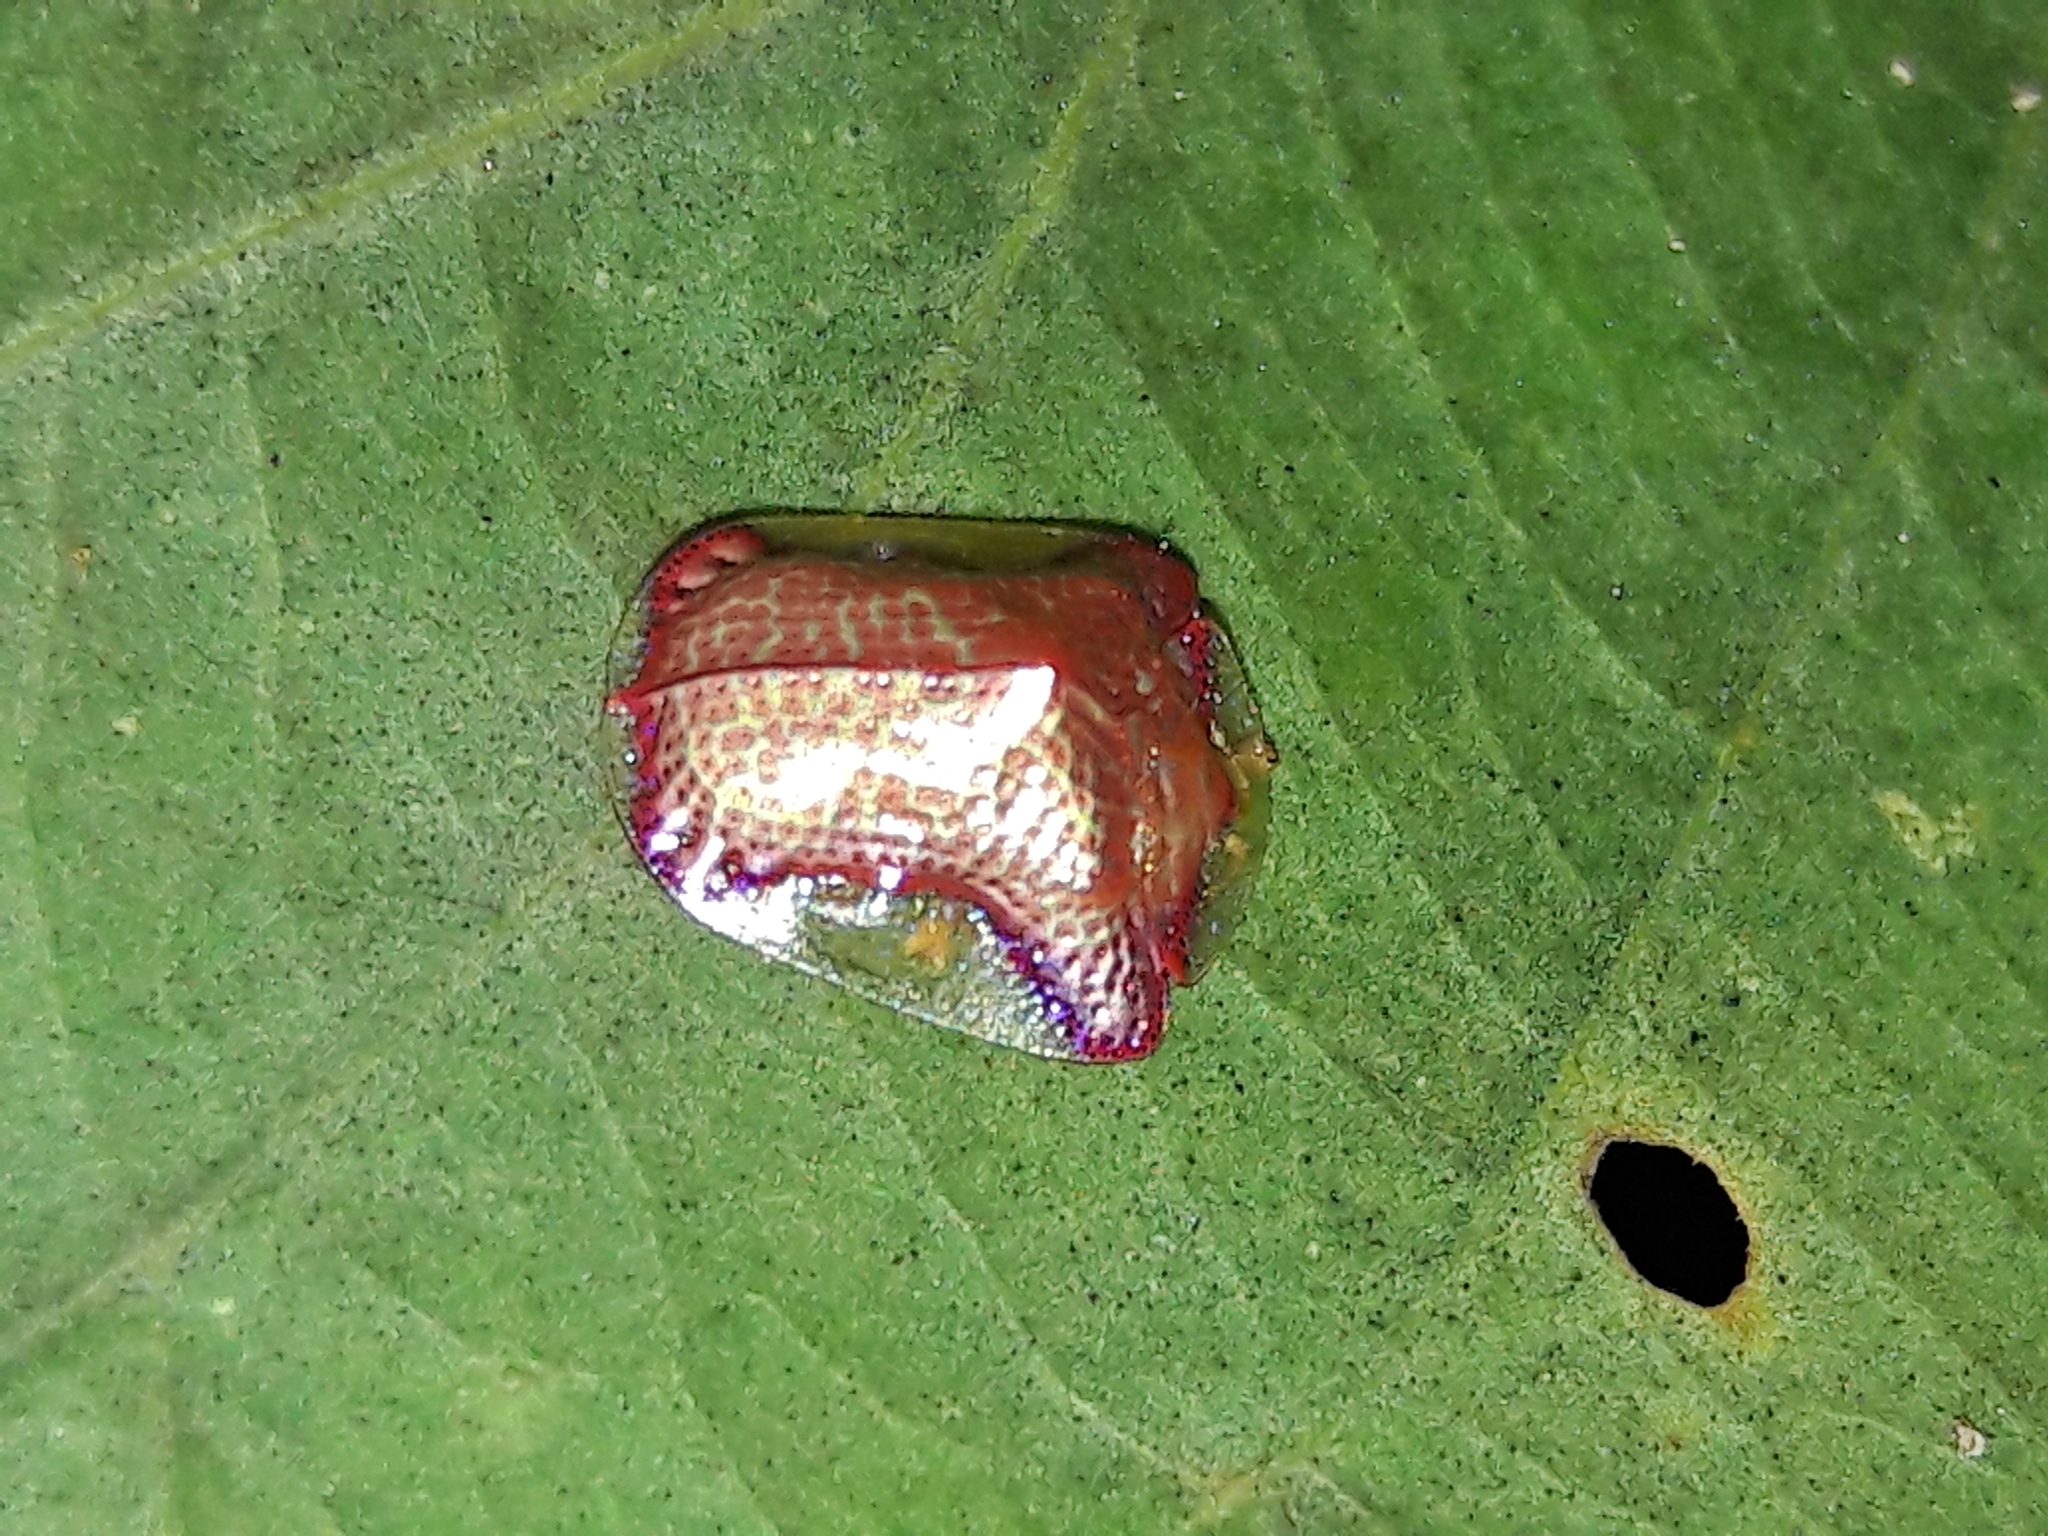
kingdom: Animalia
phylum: Arthropoda
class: Insecta
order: Coleoptera
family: Chrysomelidae
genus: Charidotella
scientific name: Charidotella rubicunda
